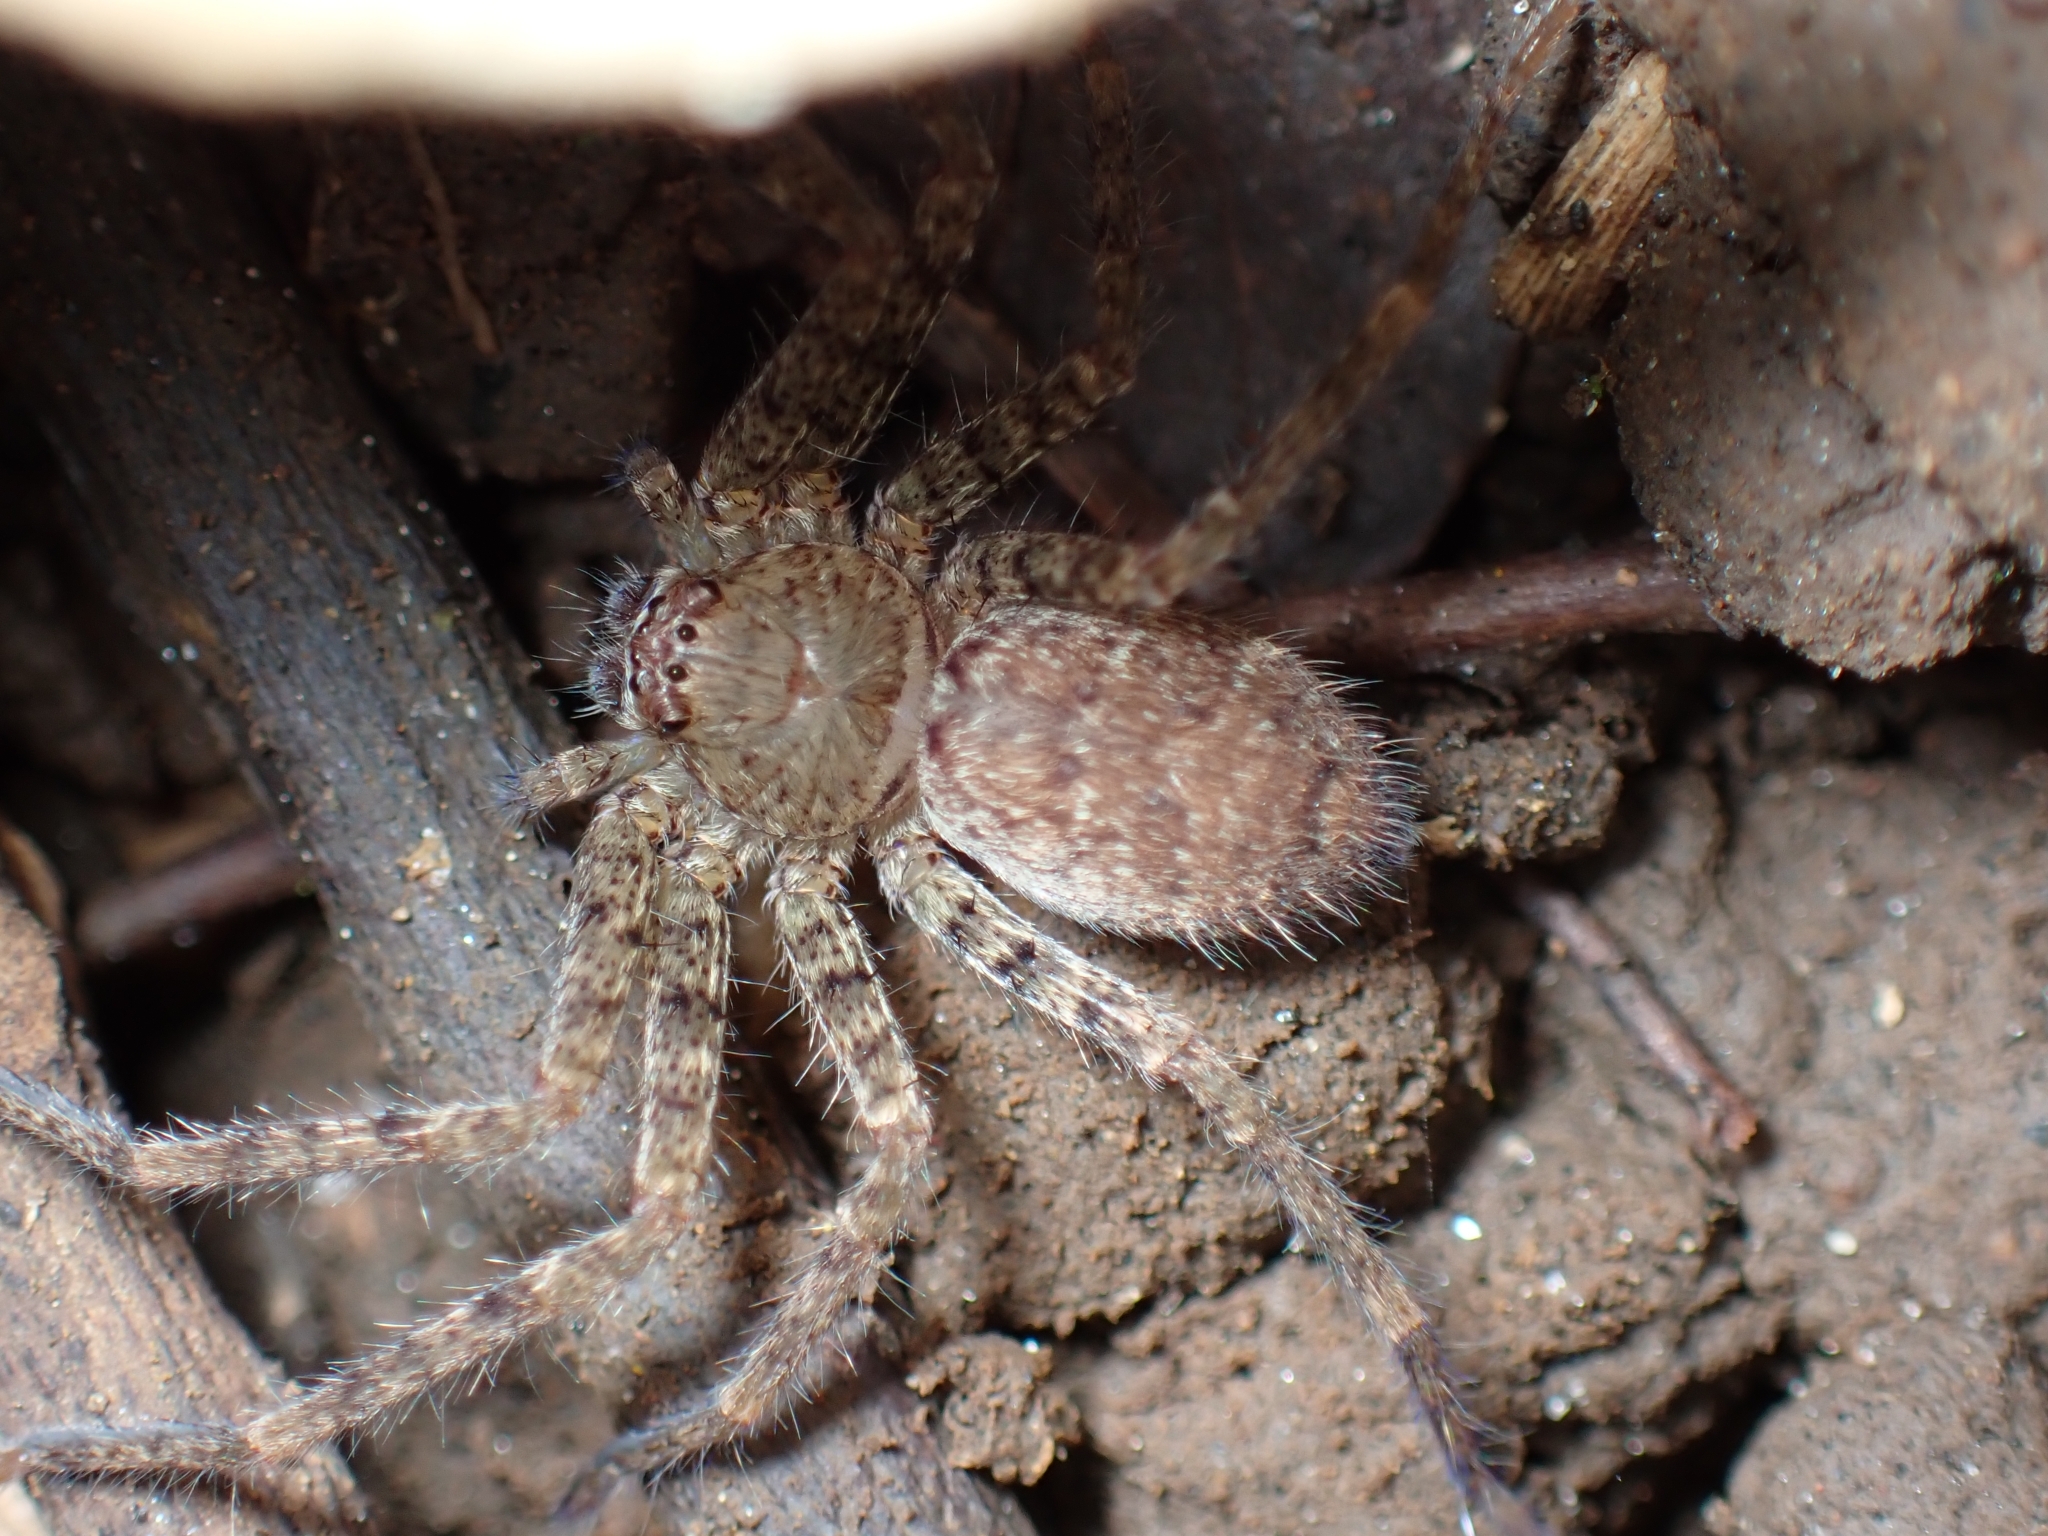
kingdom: Animalia
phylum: Arthropoda
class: Arachnida
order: Araneae
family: Sparassidae
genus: Heteropoda
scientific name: Heteropoda venatoria
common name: Huntsman spider
